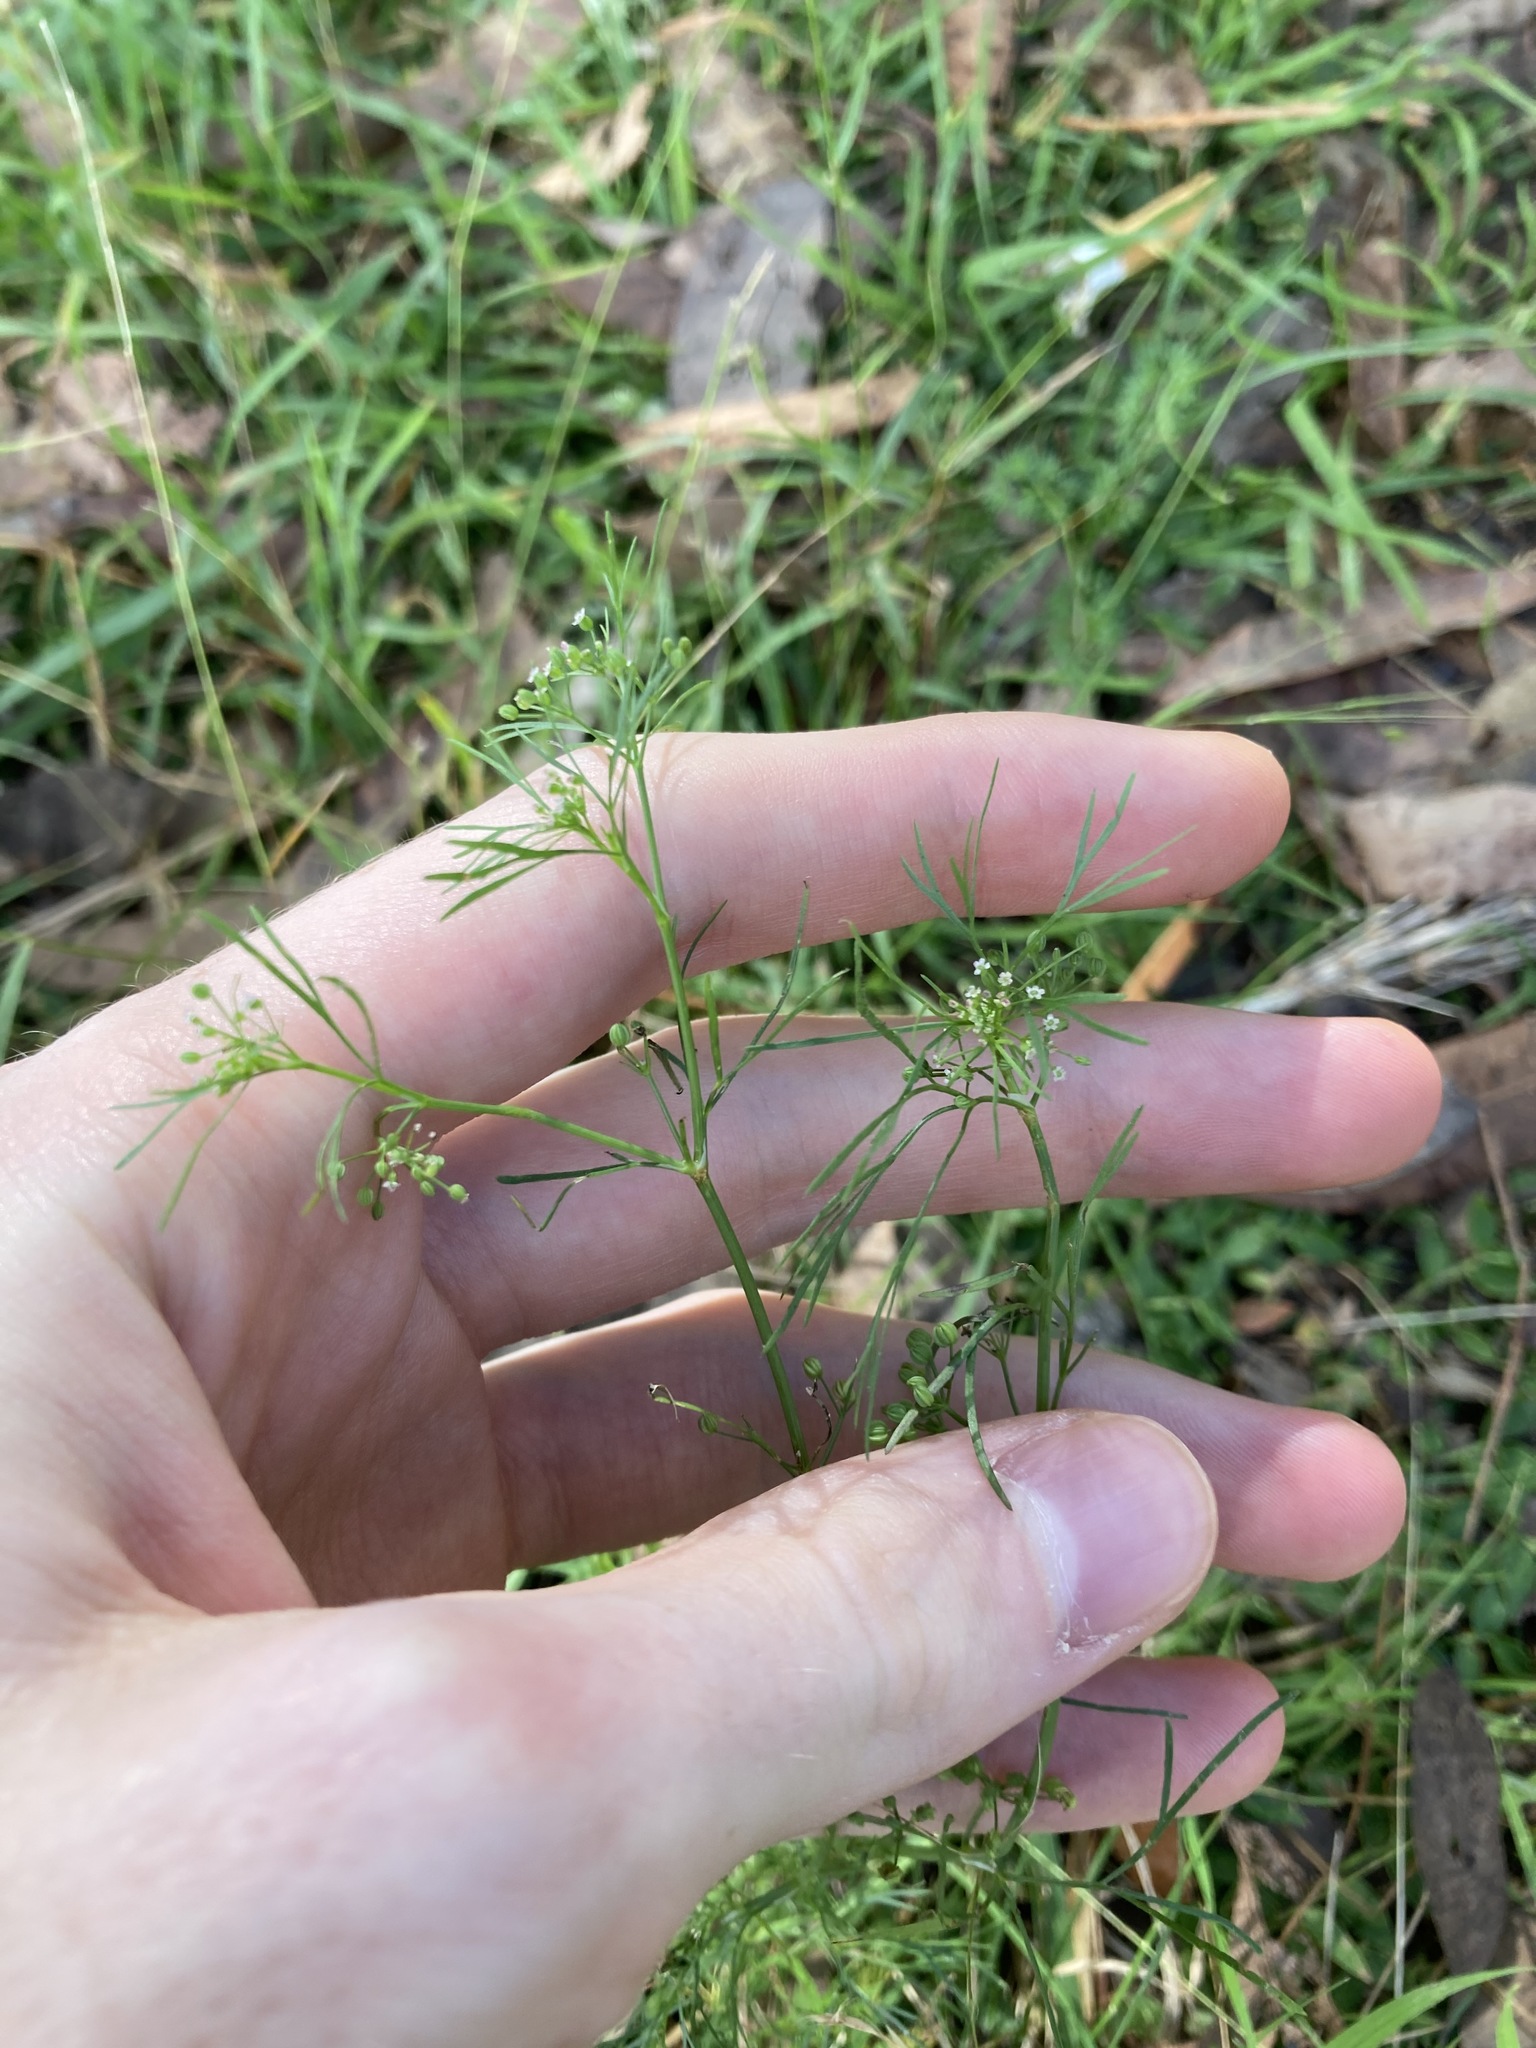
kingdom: Plantae
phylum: Tracheophyta
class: Magnoliopsida
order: Apiales
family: Apiaceae
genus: Cyclospermum
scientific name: Cyclospermum leptophyllum
